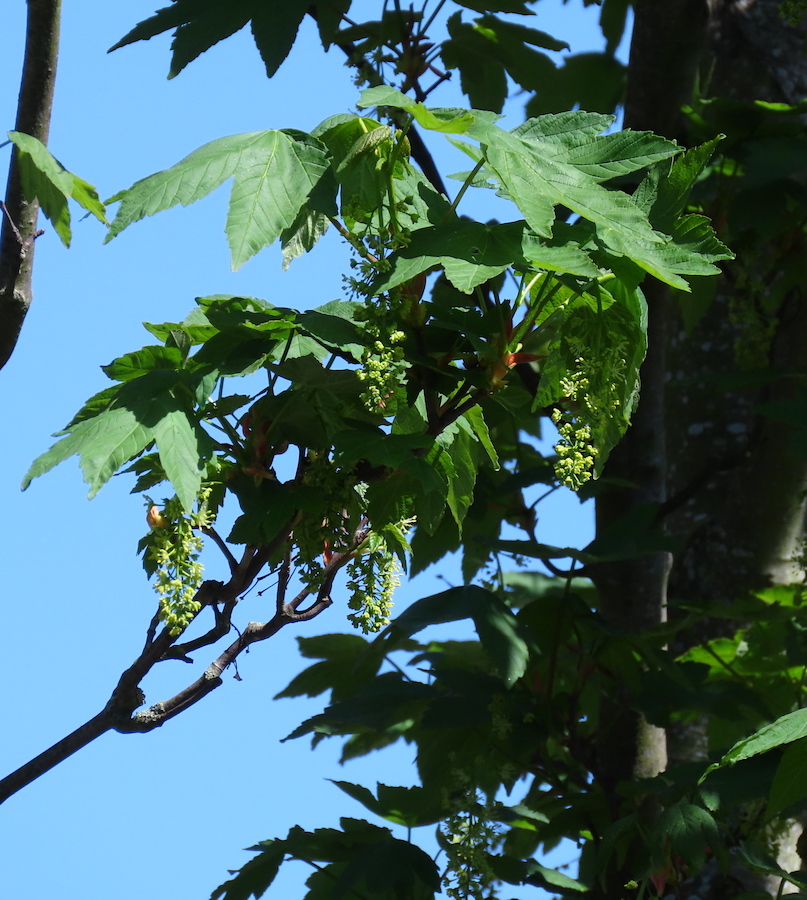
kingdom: Plantae
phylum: Tracheophyta
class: Magnoliopsida
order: Sapindales
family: Sapindaceae
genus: Acer
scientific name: Acer pseudoplatanus
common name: Sycamore
